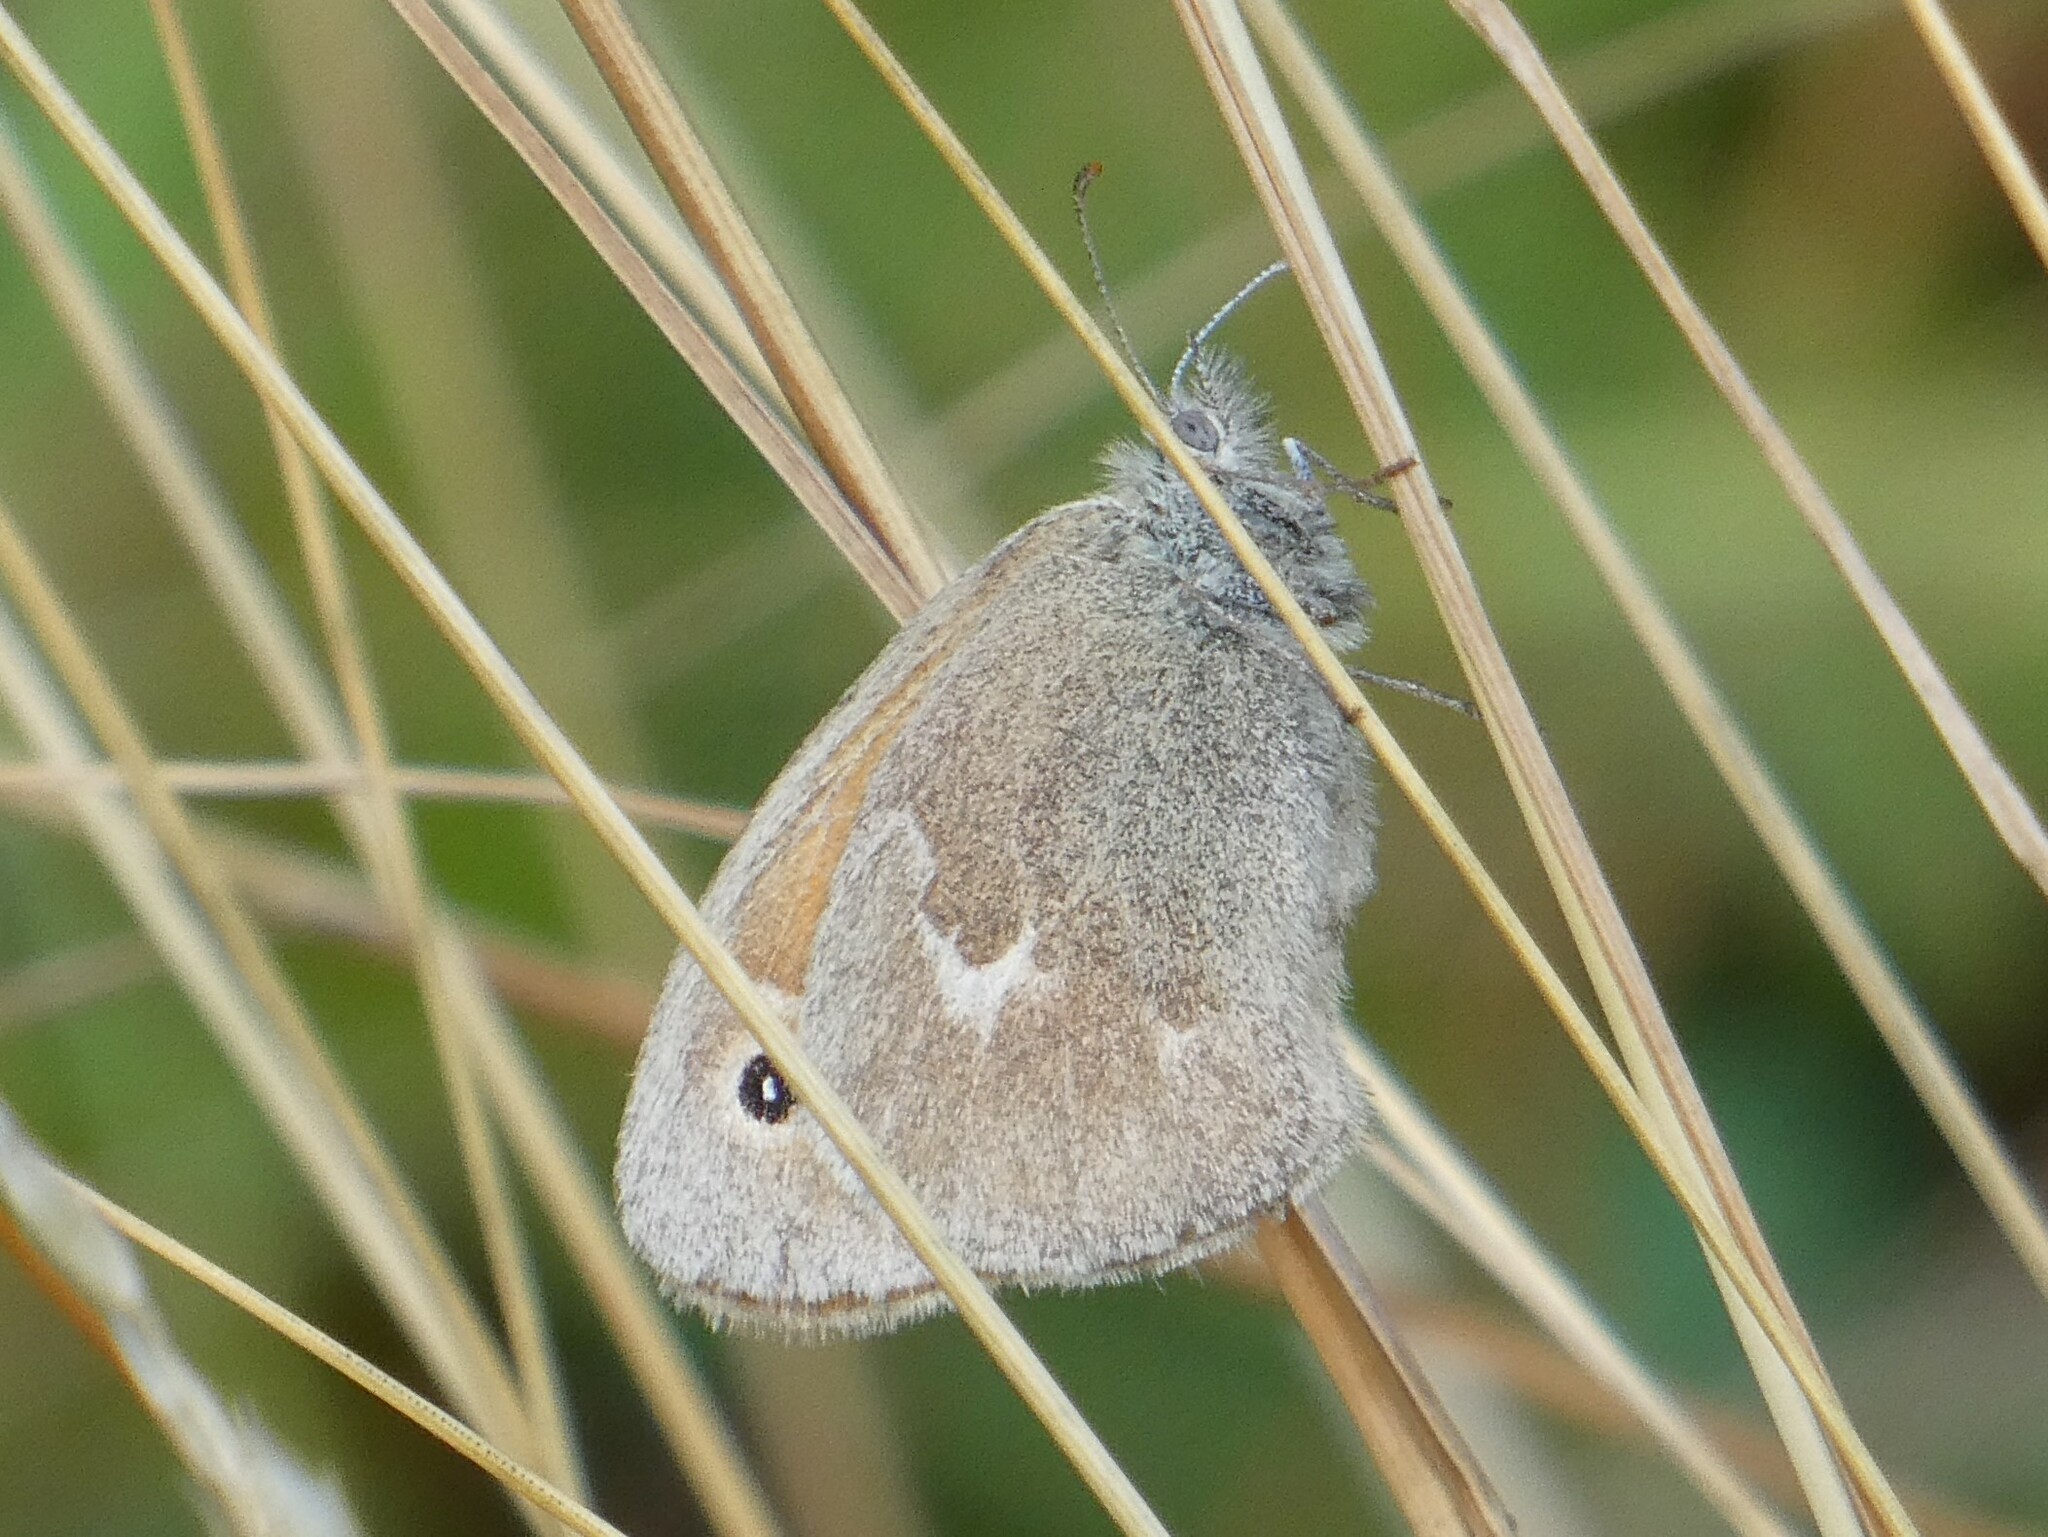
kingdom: Animalia
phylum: Arthropoda
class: Insecta
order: Lepidoptera
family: Nymphalidae
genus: Coenonympha
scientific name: Coenonympha california
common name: Common ringlet
